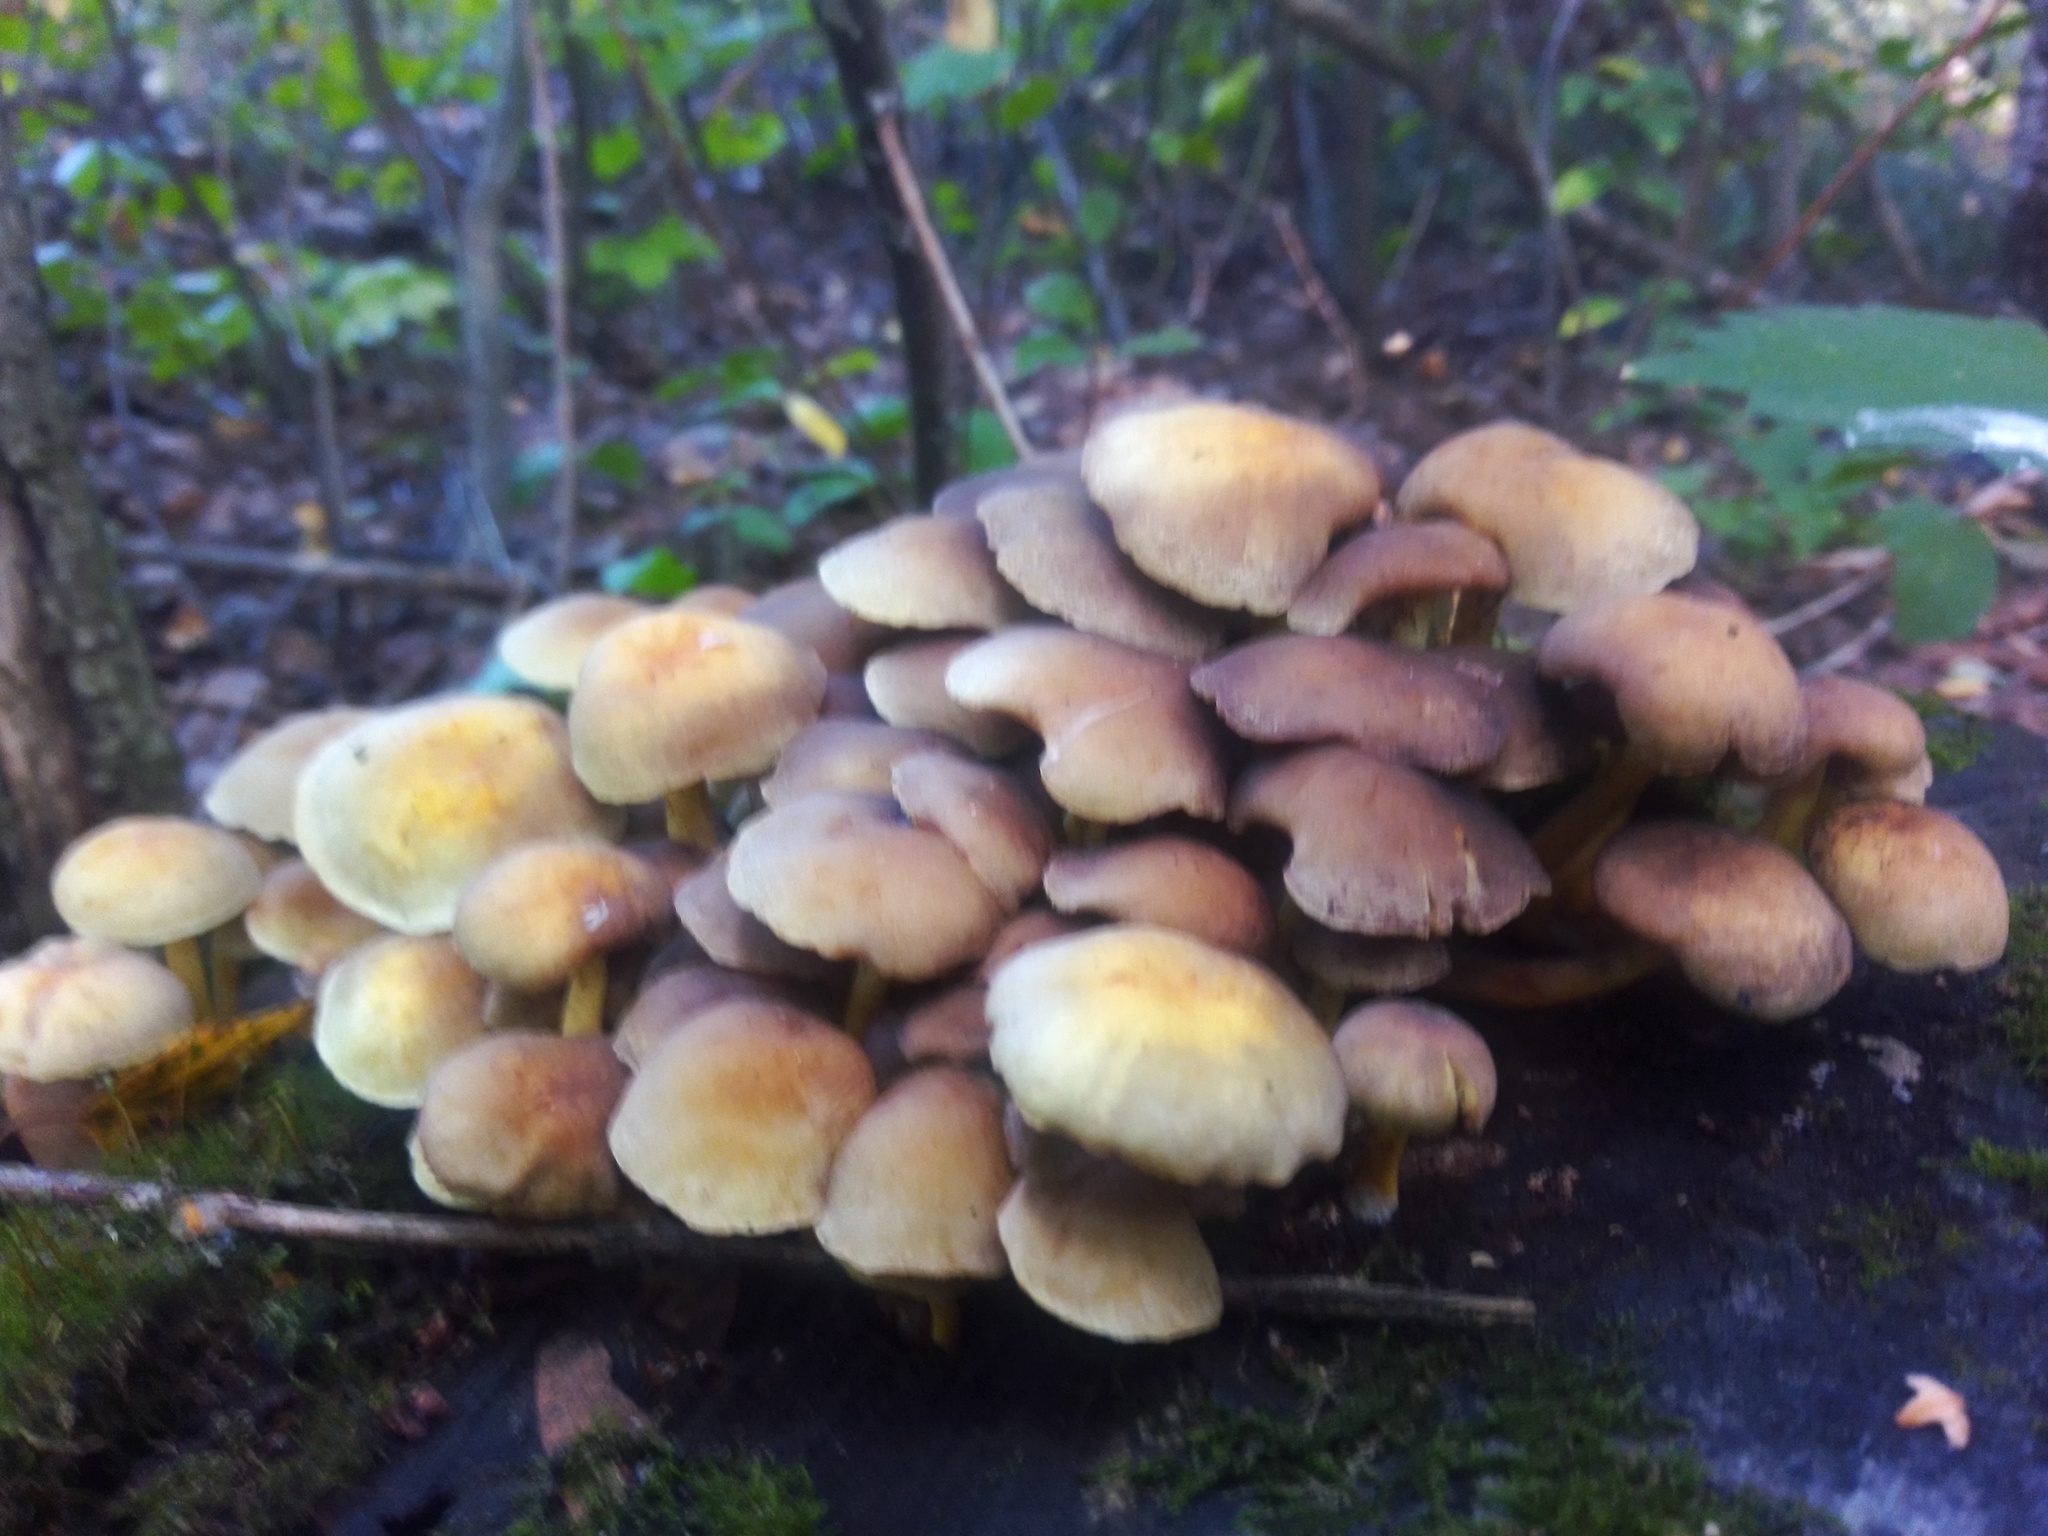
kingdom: Fungi
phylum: Basidiomycota
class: Agaricomycetes
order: Agaricales
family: Strophariaceae
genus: Hypholoma
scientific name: Hypholoma fasciculare
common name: Sulphur tuft
